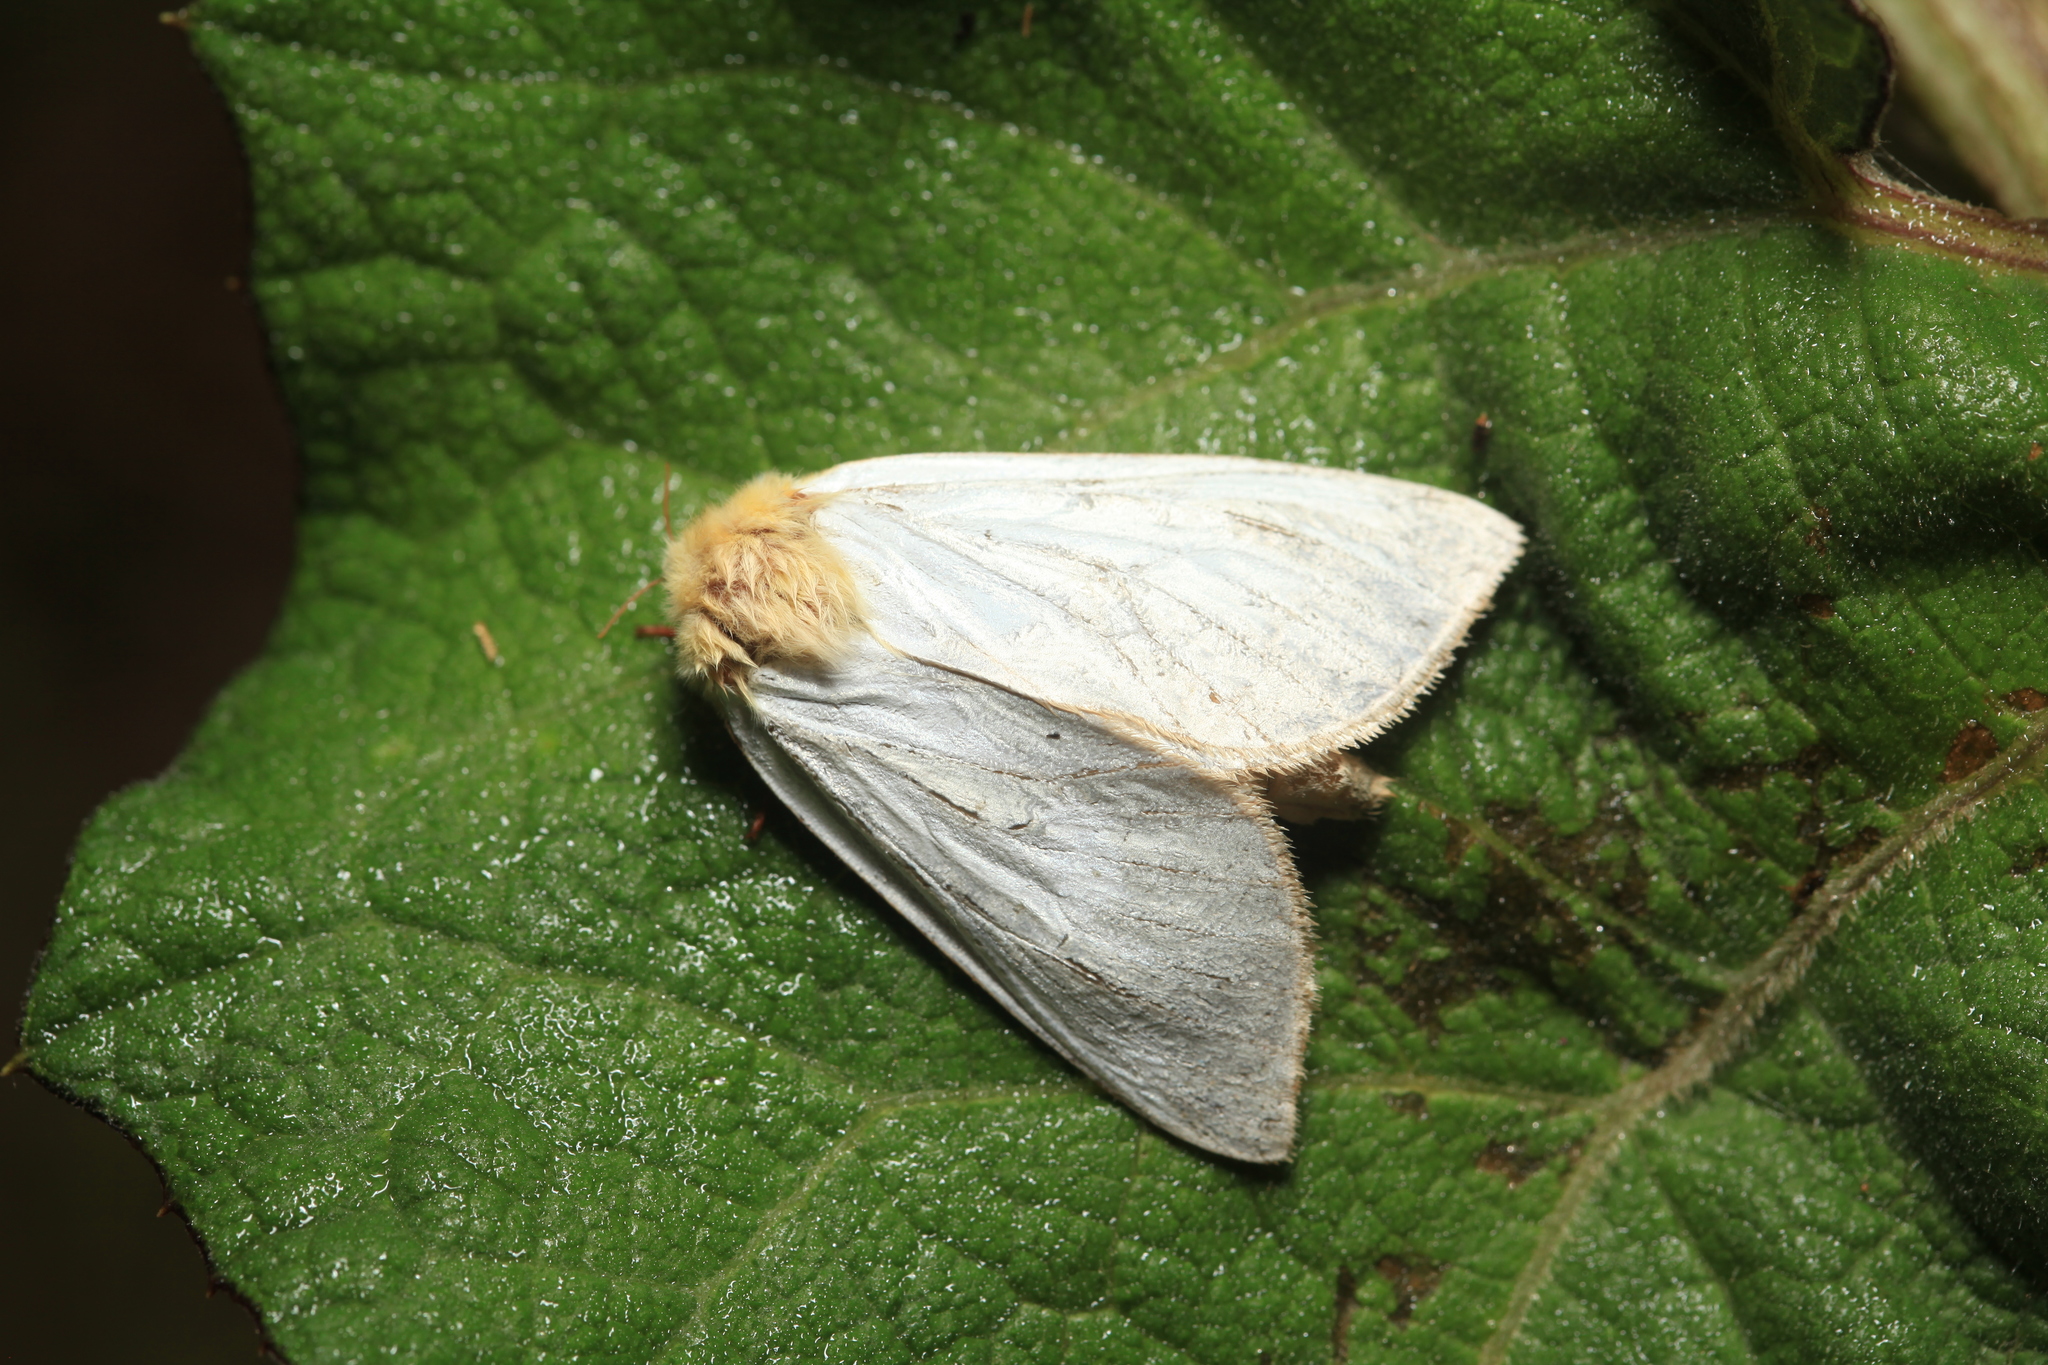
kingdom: Animalia
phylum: Arthropoda
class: Insecta
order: Lepidoptera
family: Hepialidae
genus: Hepialus
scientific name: Hepialus humuli
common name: Ghost moth
